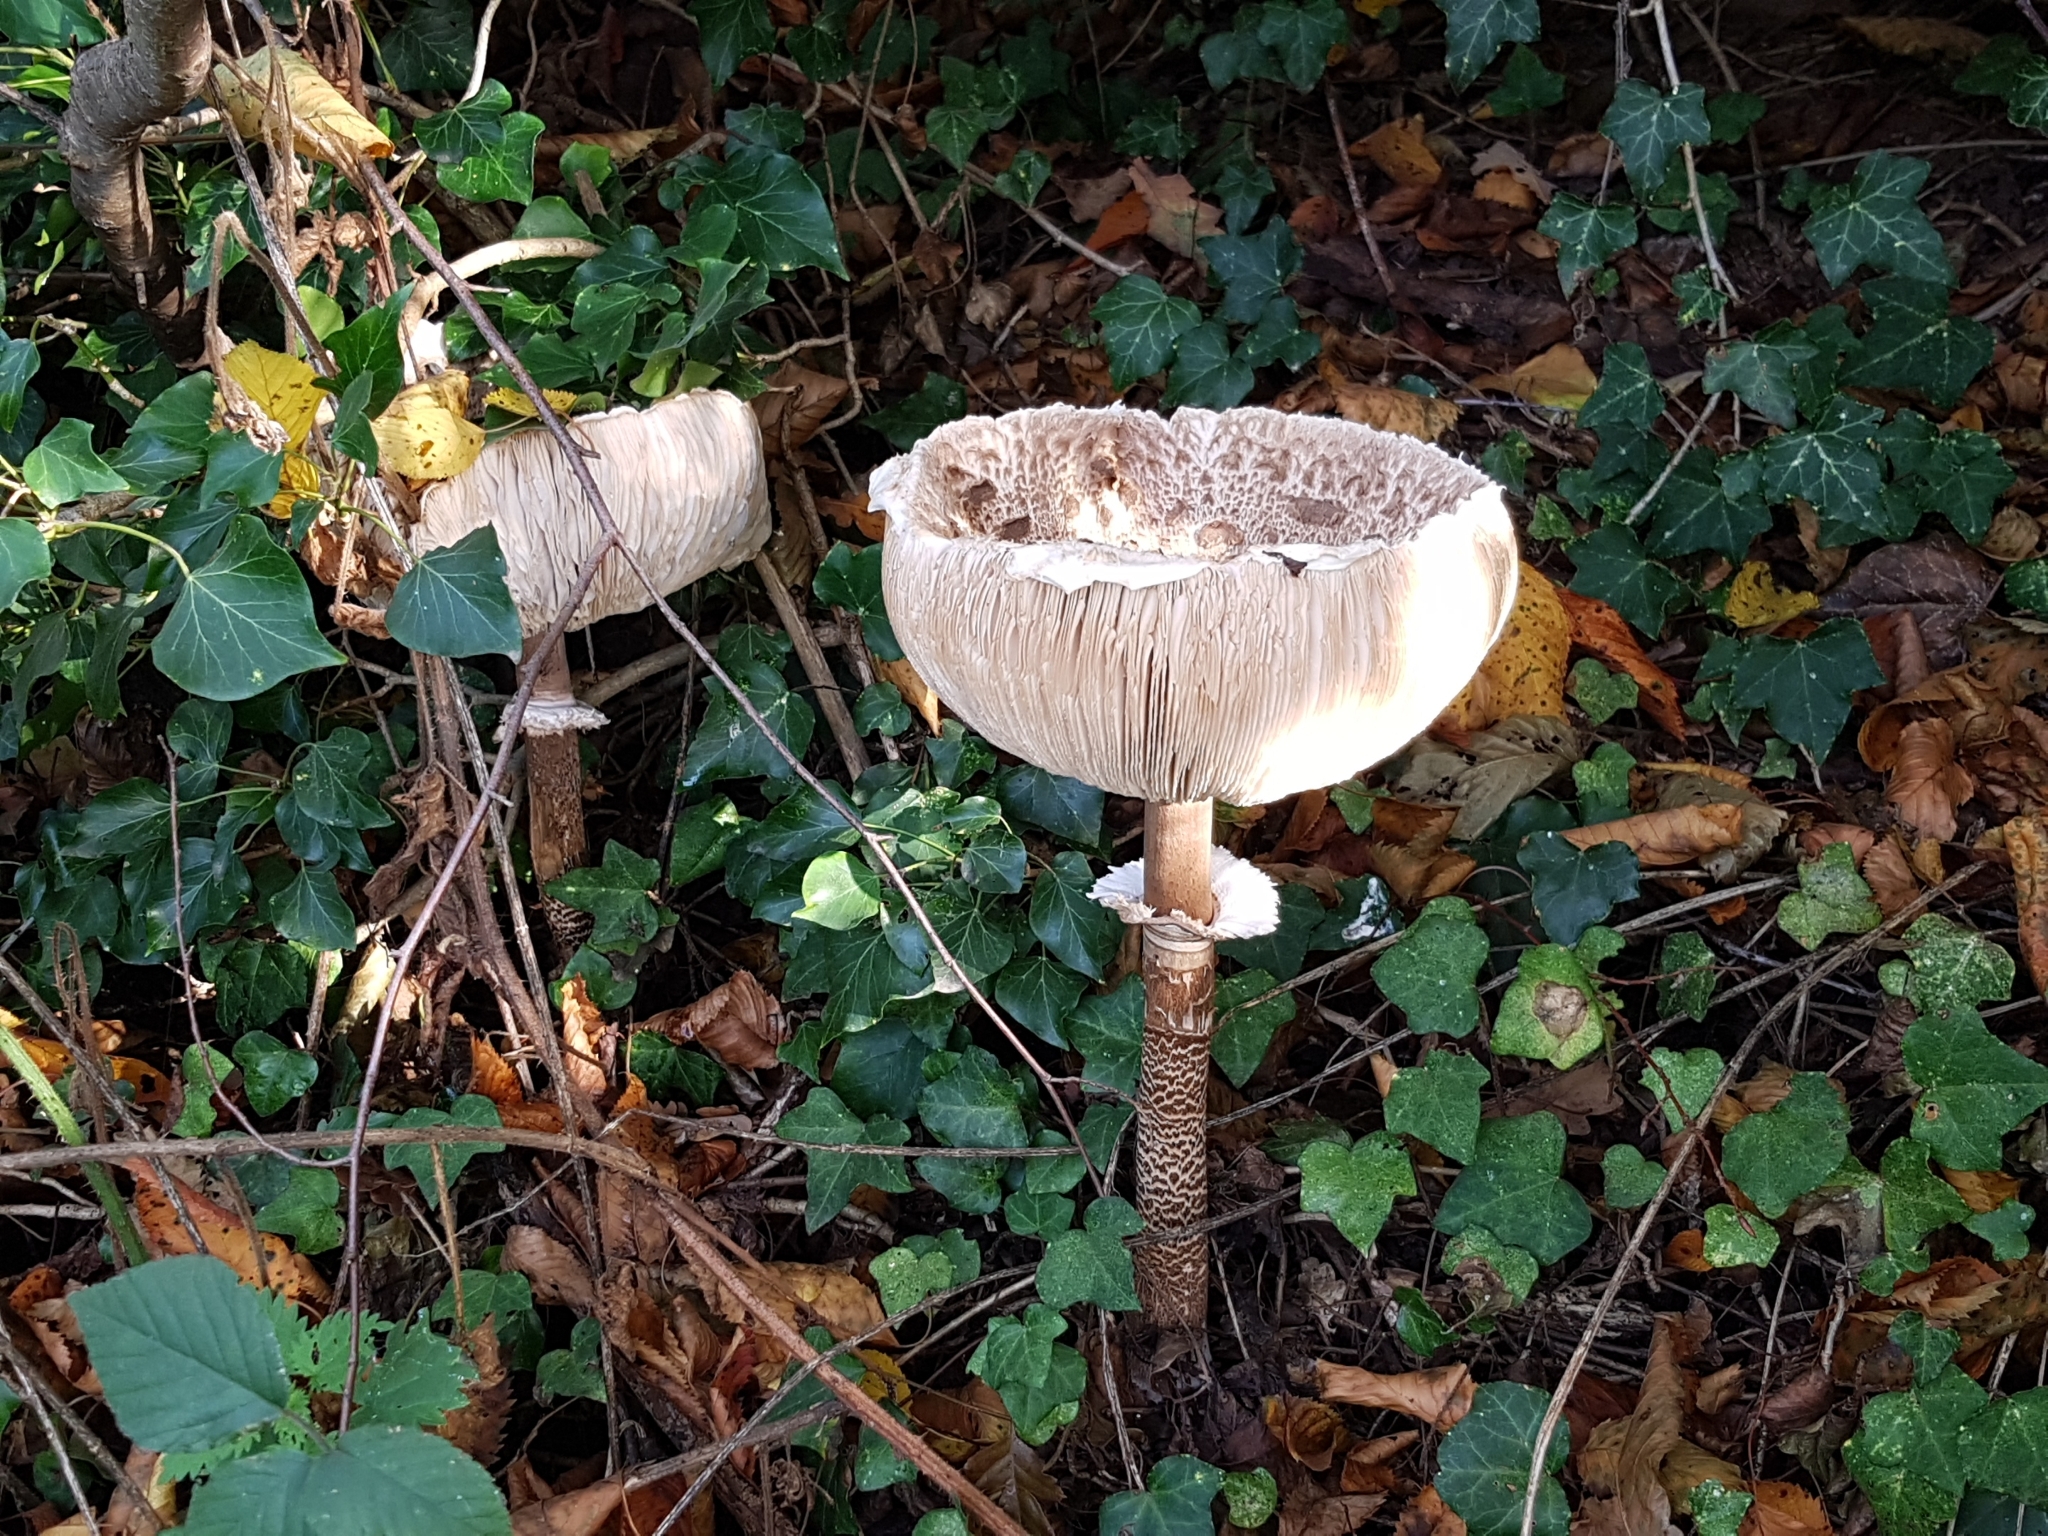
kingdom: Fungi
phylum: Basidiomycota
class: Agaricomycetes
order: Agaricales
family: Agaricaceae
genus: Macrolepiota
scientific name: Macrolepiota procera
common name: Parasol
